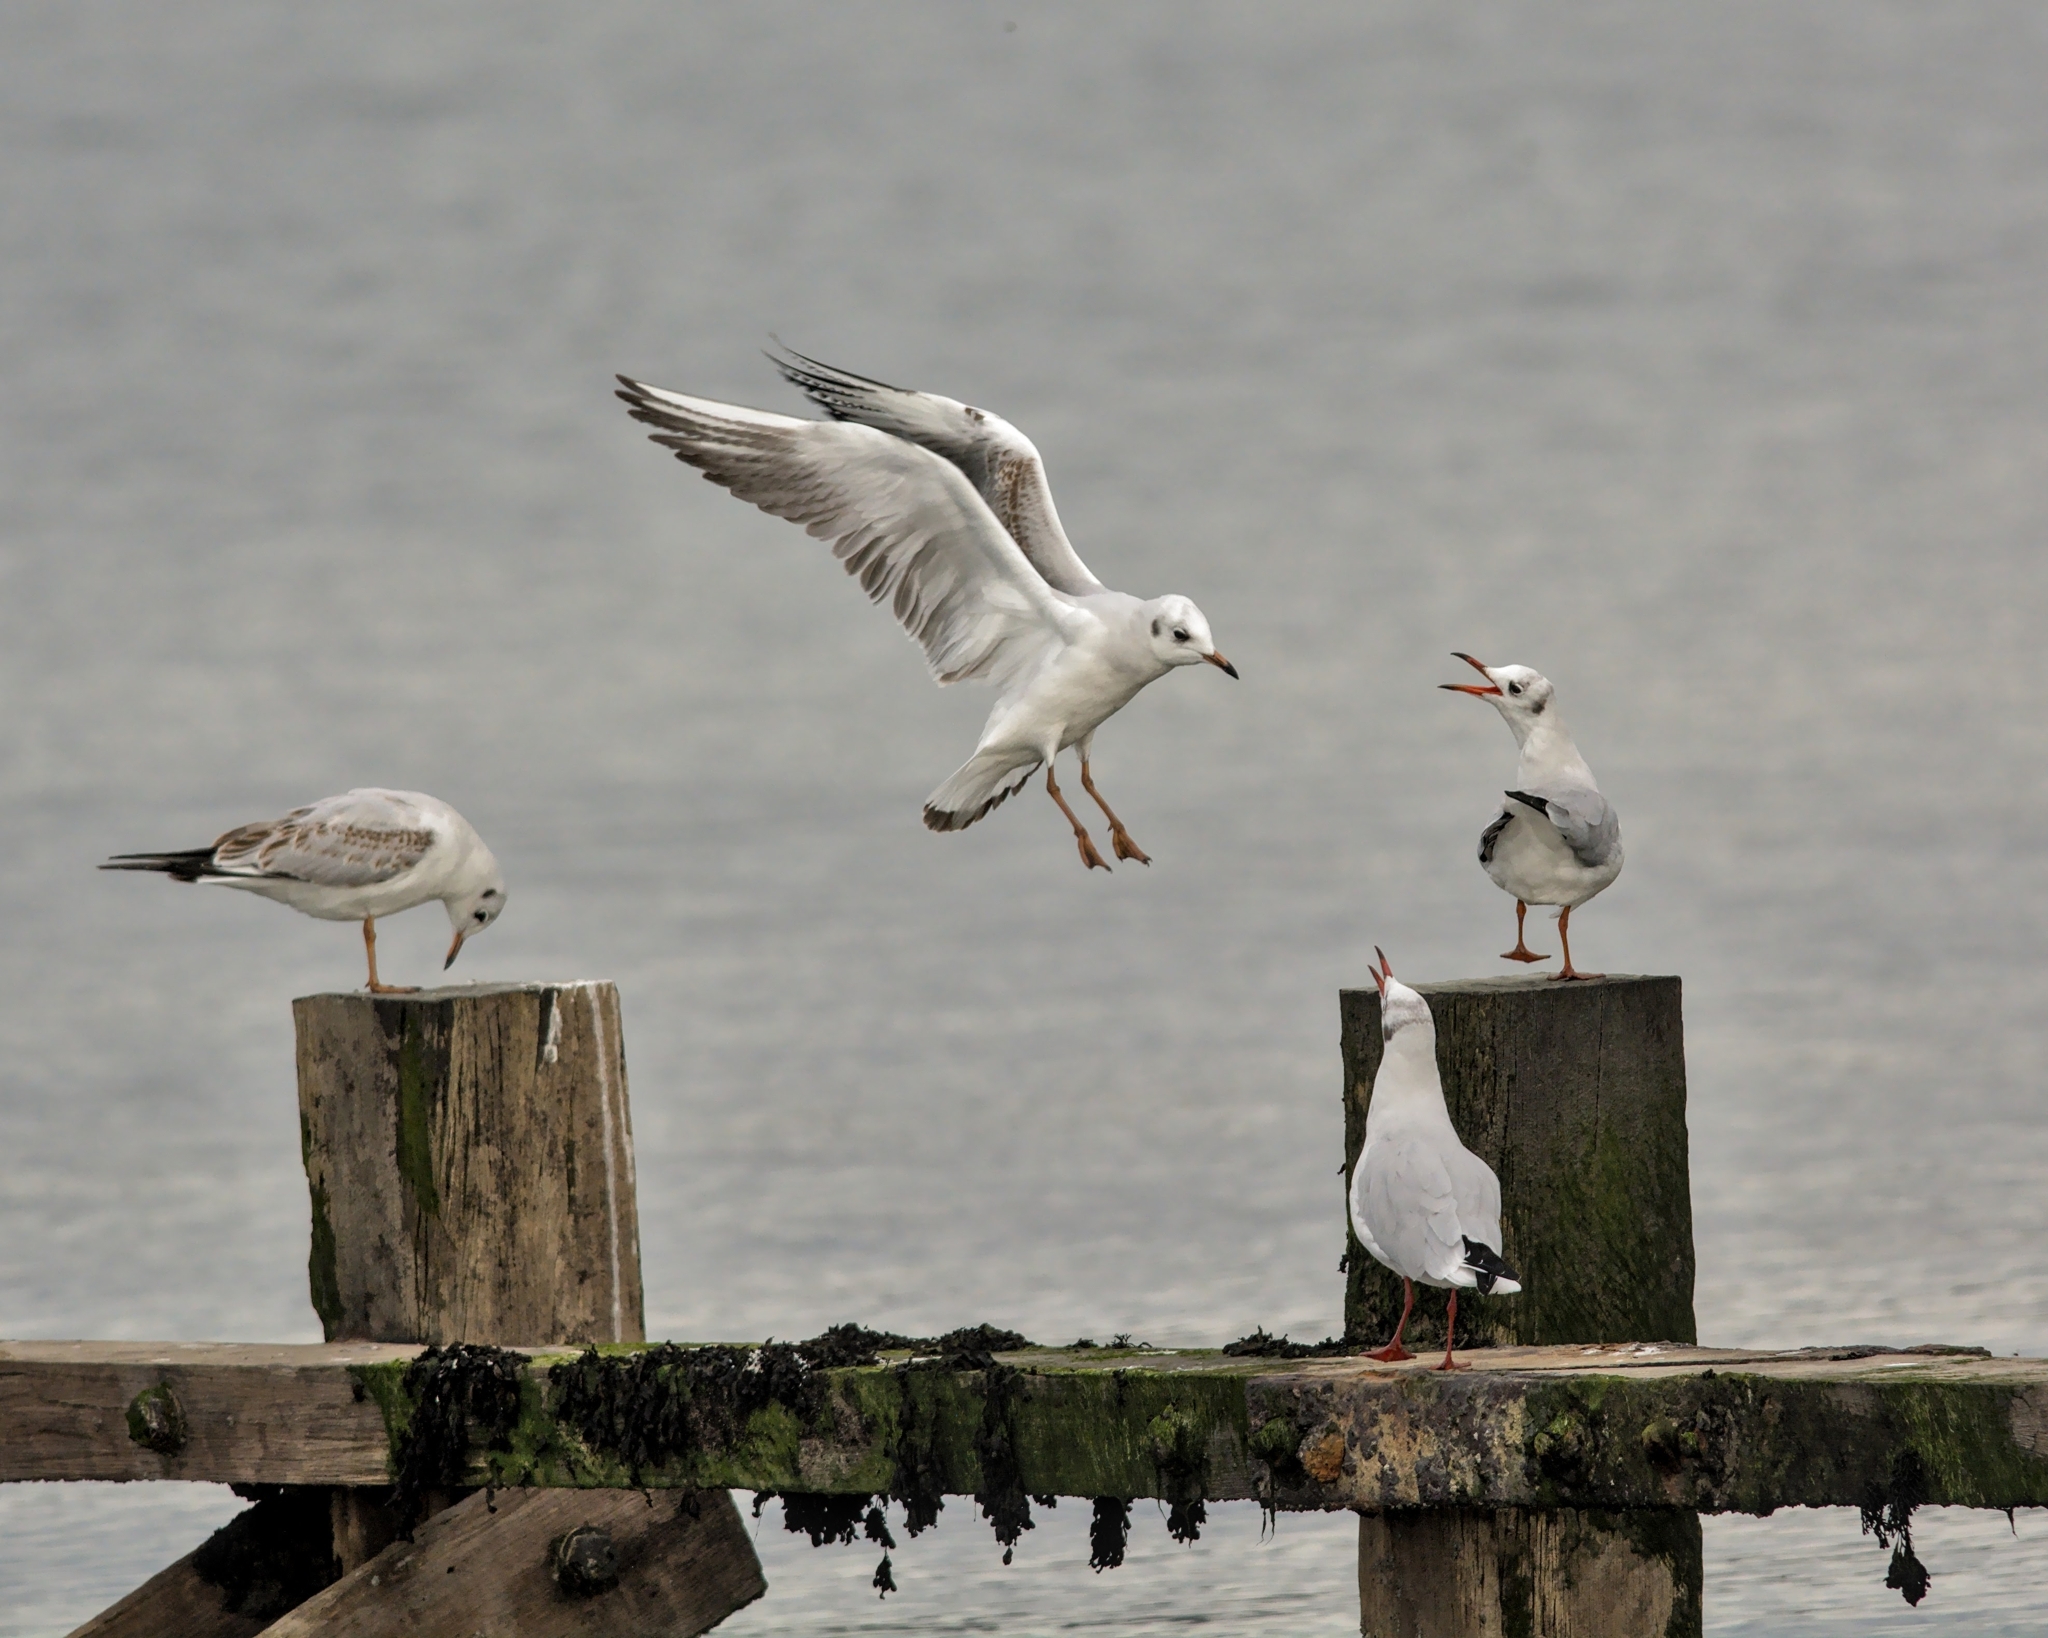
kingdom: Animalia
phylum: Chordata
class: Aves
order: Charadriiformes
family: Laridae
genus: Chroicocephalus
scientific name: Chroicocephalus ridibundus
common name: Black-headed gull
